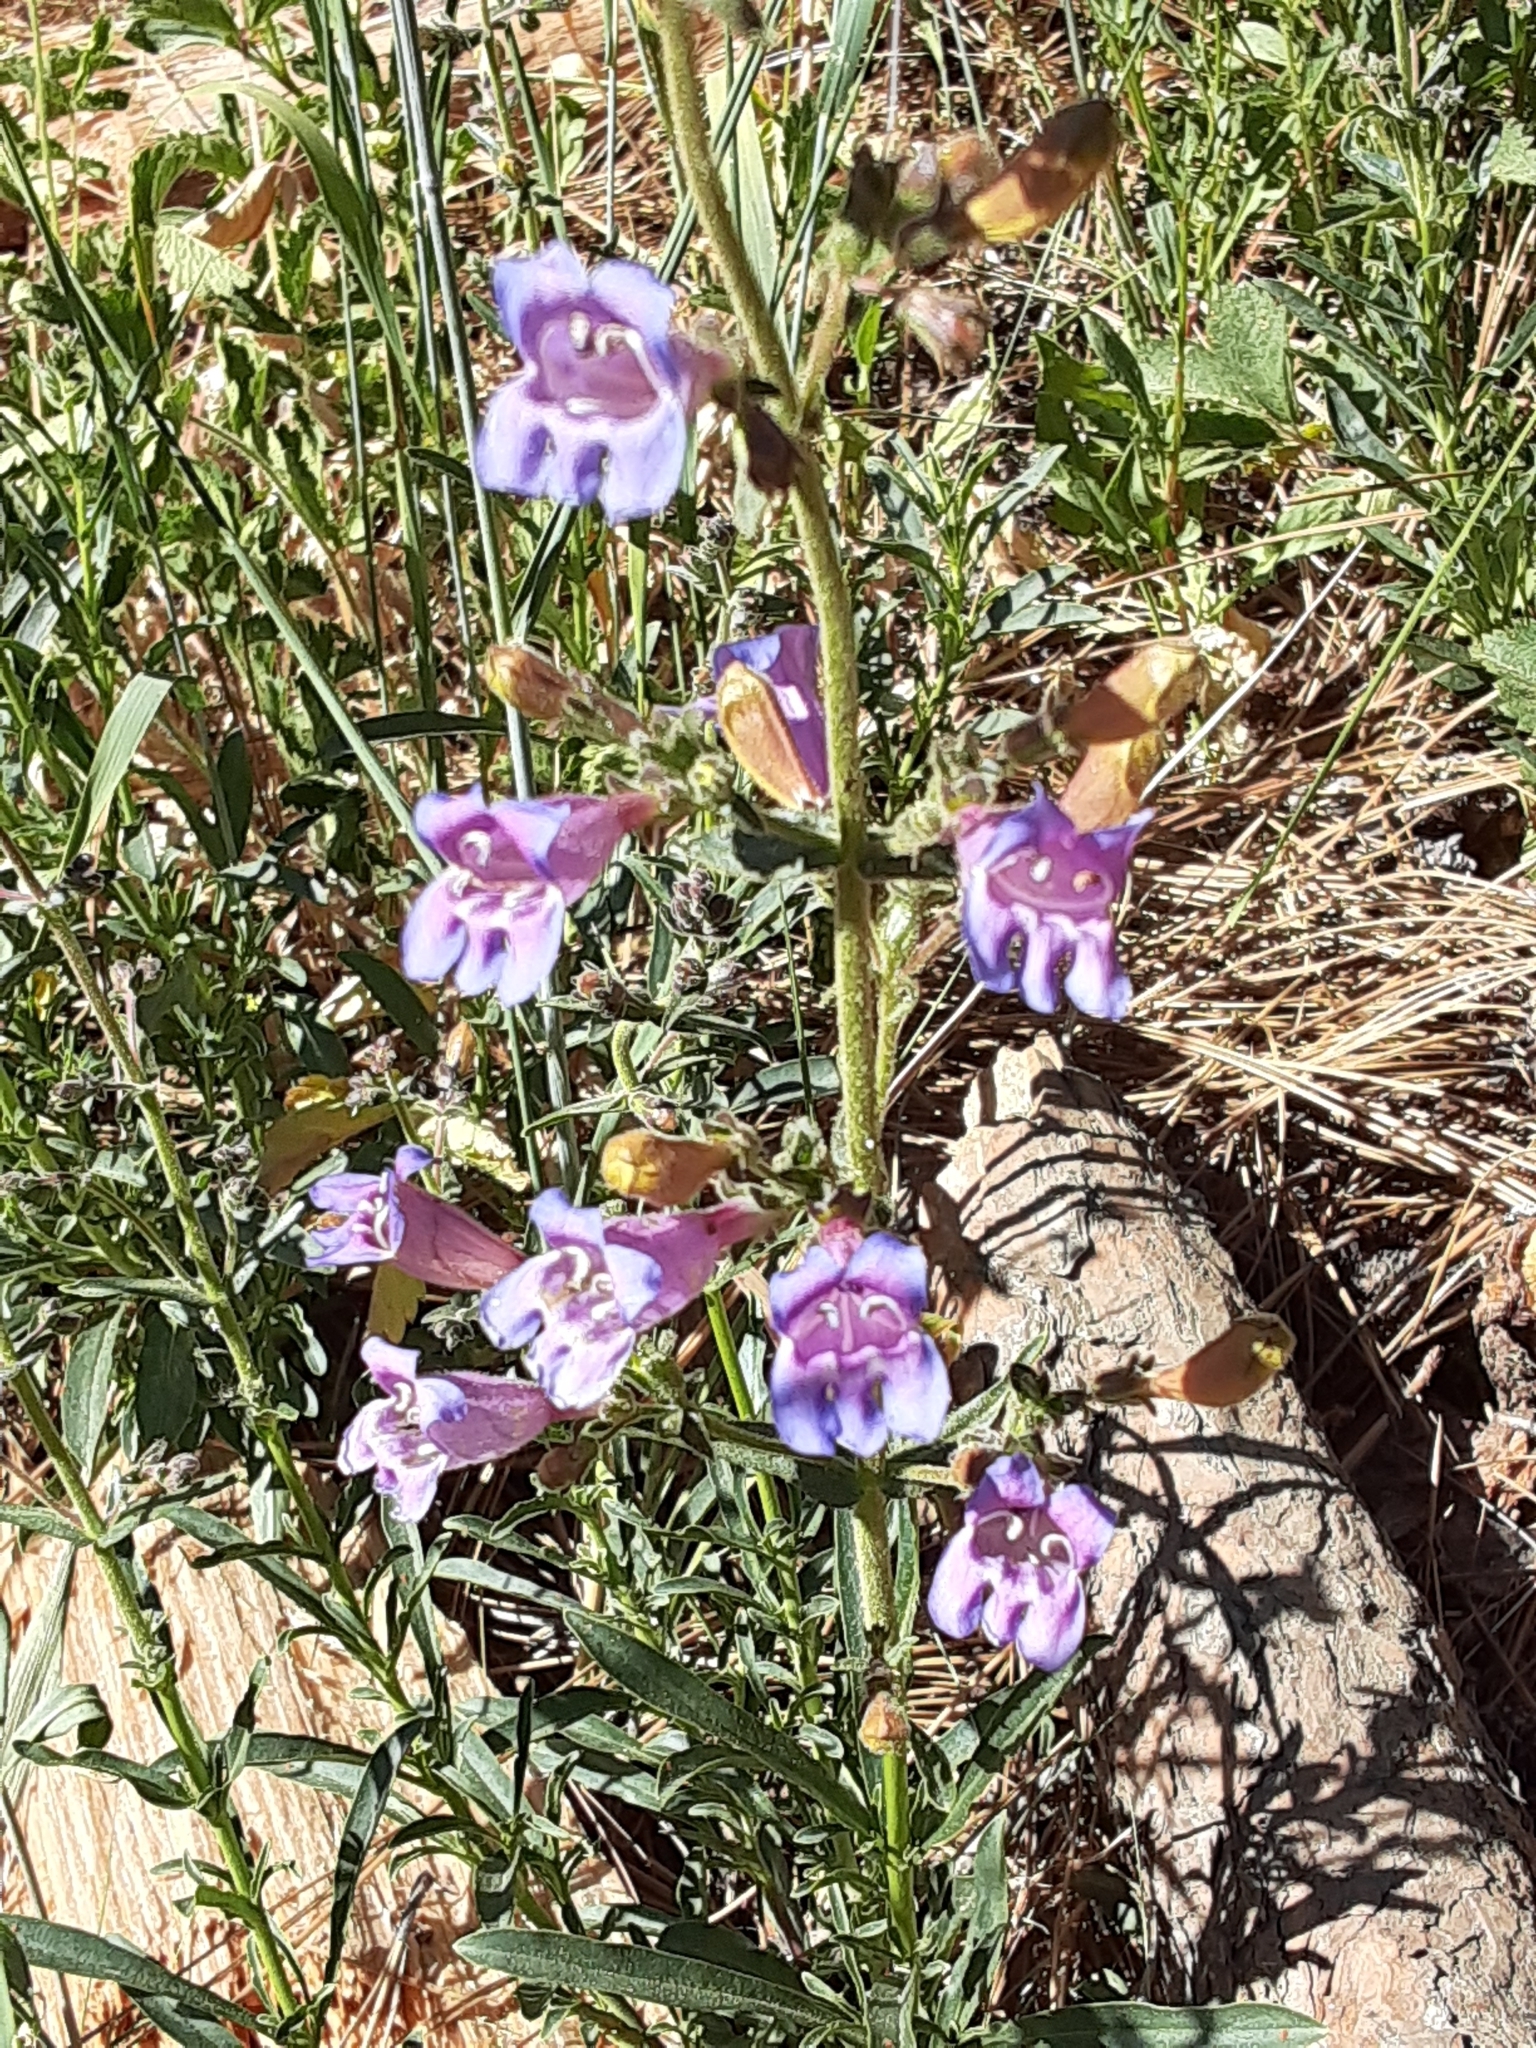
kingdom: Plantae
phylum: Tracheophyta
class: Magnoliopsida
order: Lamiales
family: Plantaginaceae
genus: Penstemon
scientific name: Penstemon heterophyllus
